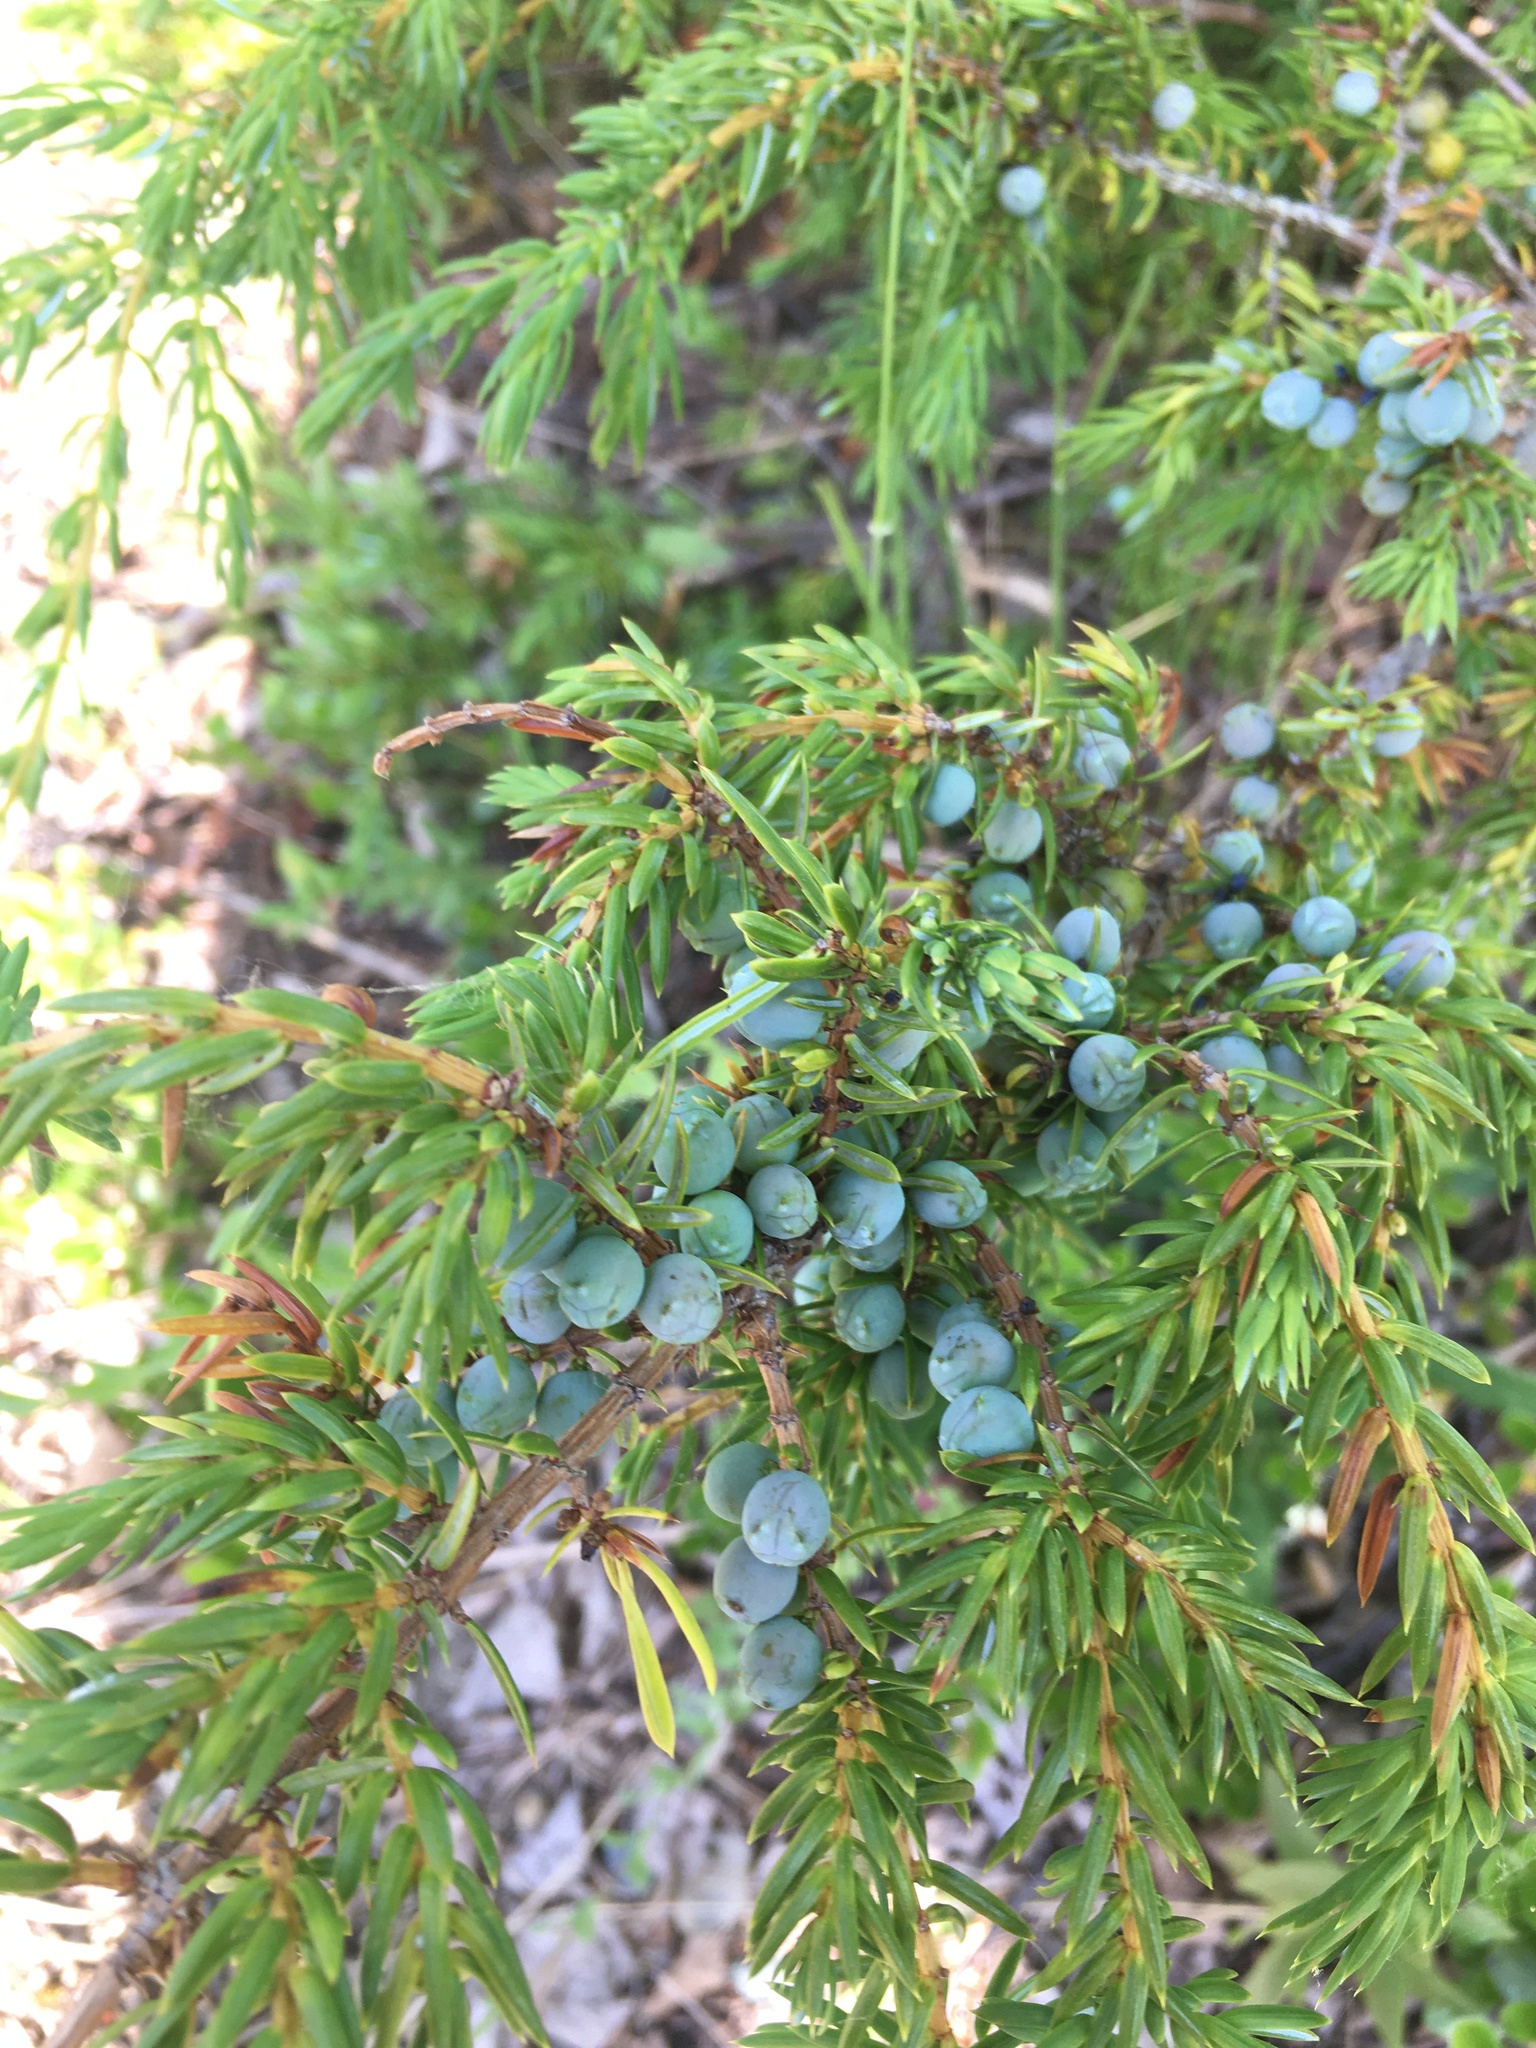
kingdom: Plantae
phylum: Tracheophyta
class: Pinopsida
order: Pinales
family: Cupressaceae
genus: Juniperus
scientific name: Juniperus communis
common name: Common juniper
